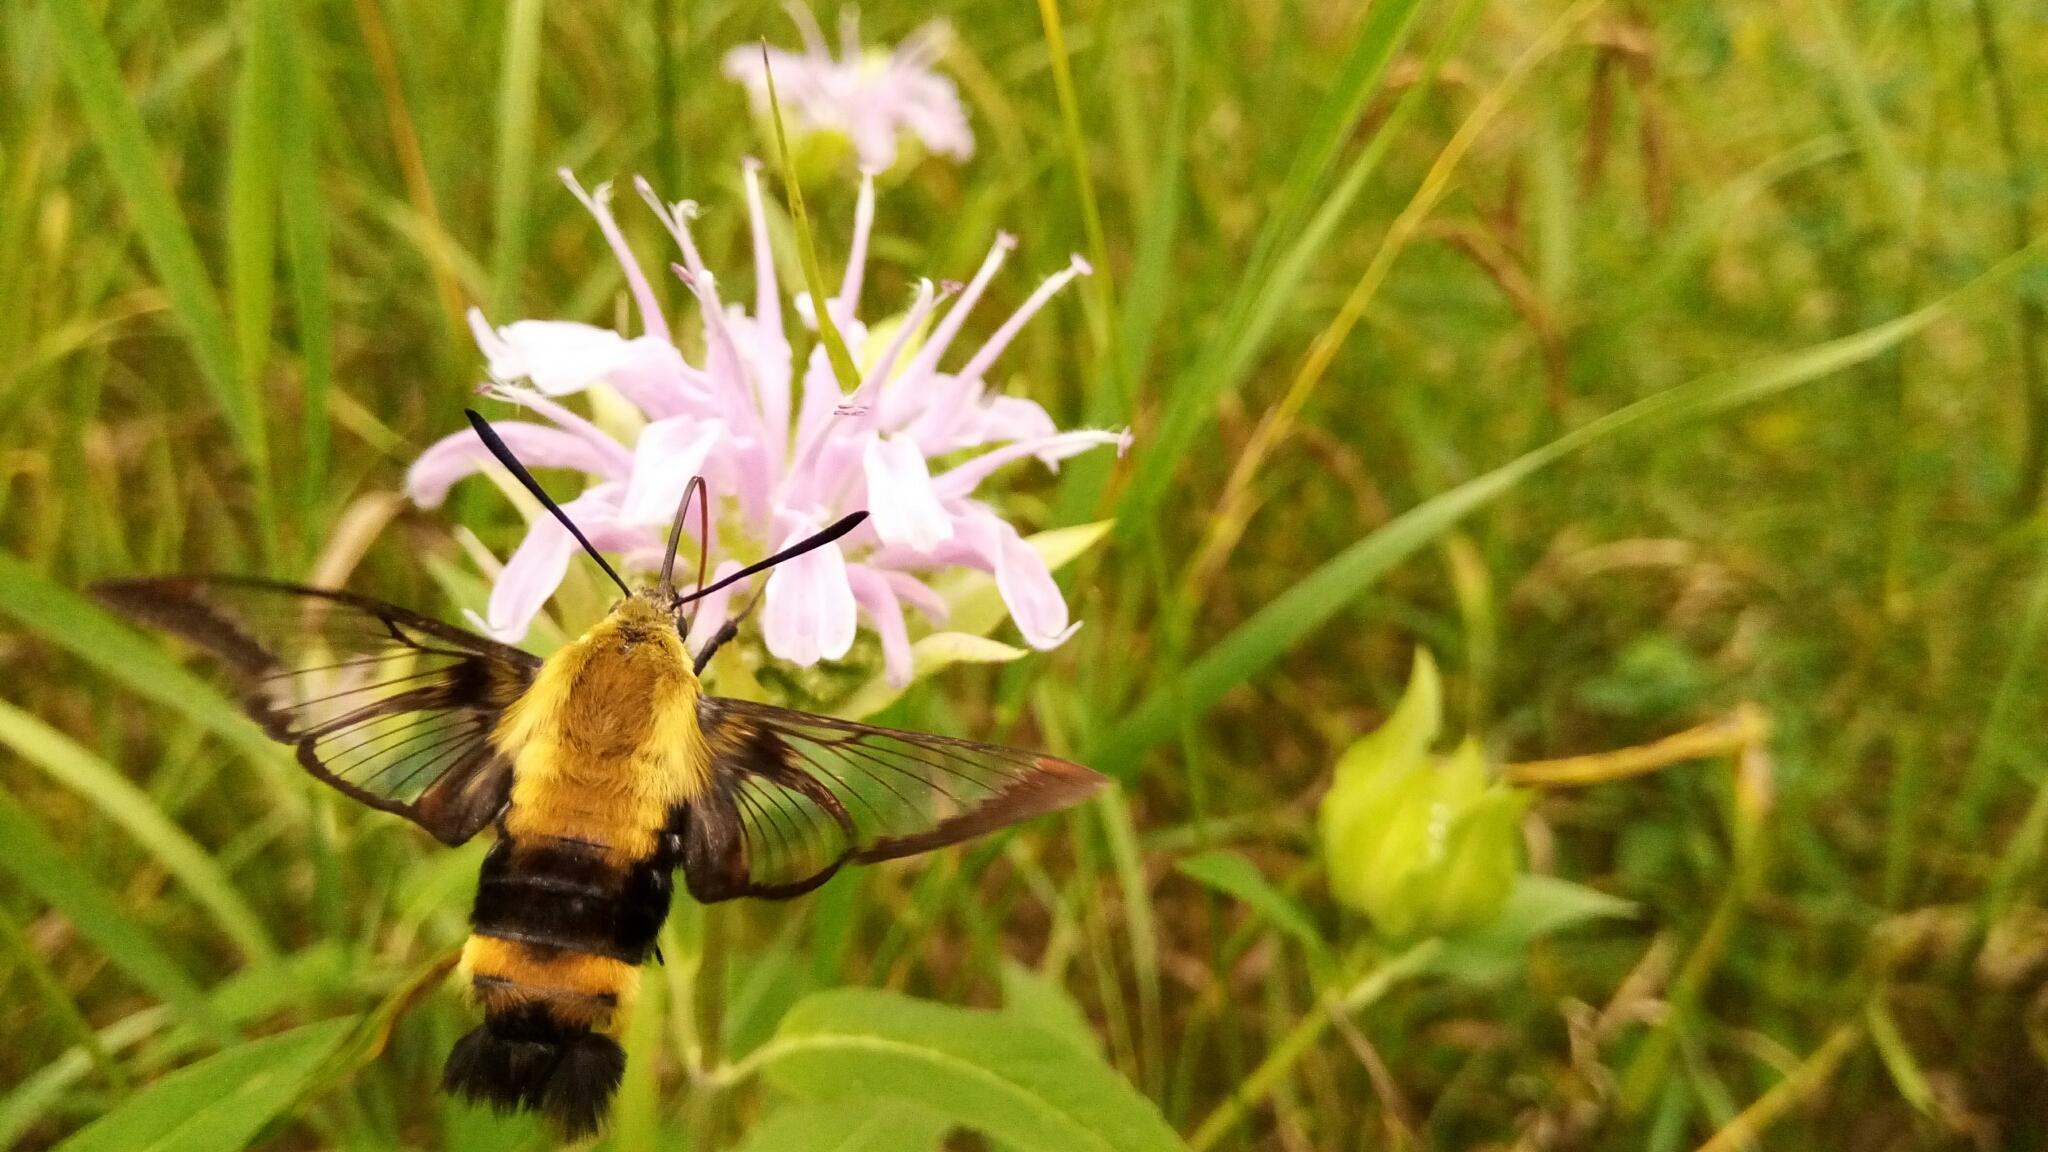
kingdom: Animalia
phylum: Arthropoda
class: Insecta
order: Lepidoptera
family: Sphingidae
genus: Hemaris
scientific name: Hemaris diffinis
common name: Bumblebee moth
